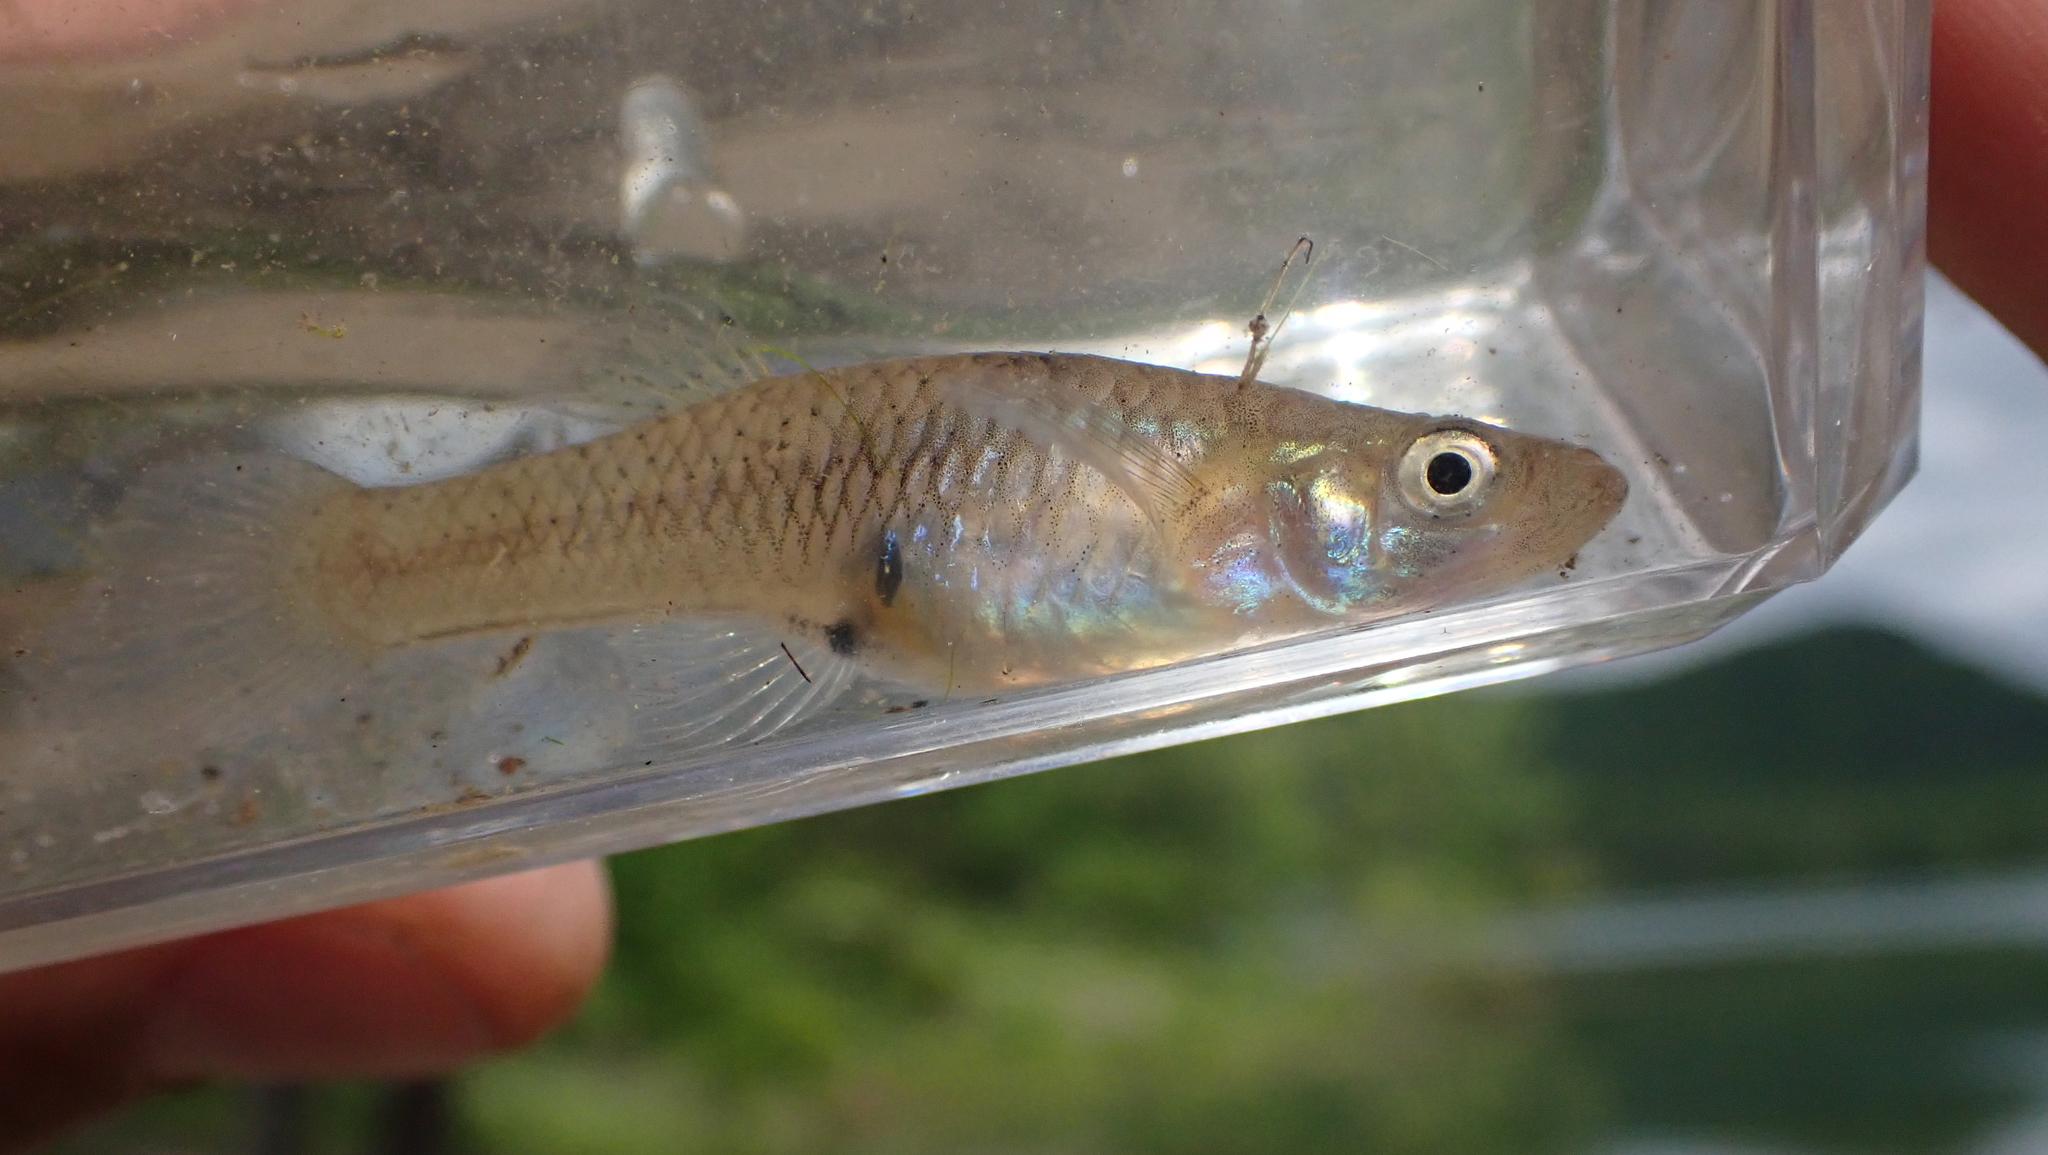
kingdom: Animalia
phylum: Chordata
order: Cyprinodontiformes
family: Poeciliidae
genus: Gambusia
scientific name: Gambusia affinis
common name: Mosquitofish
